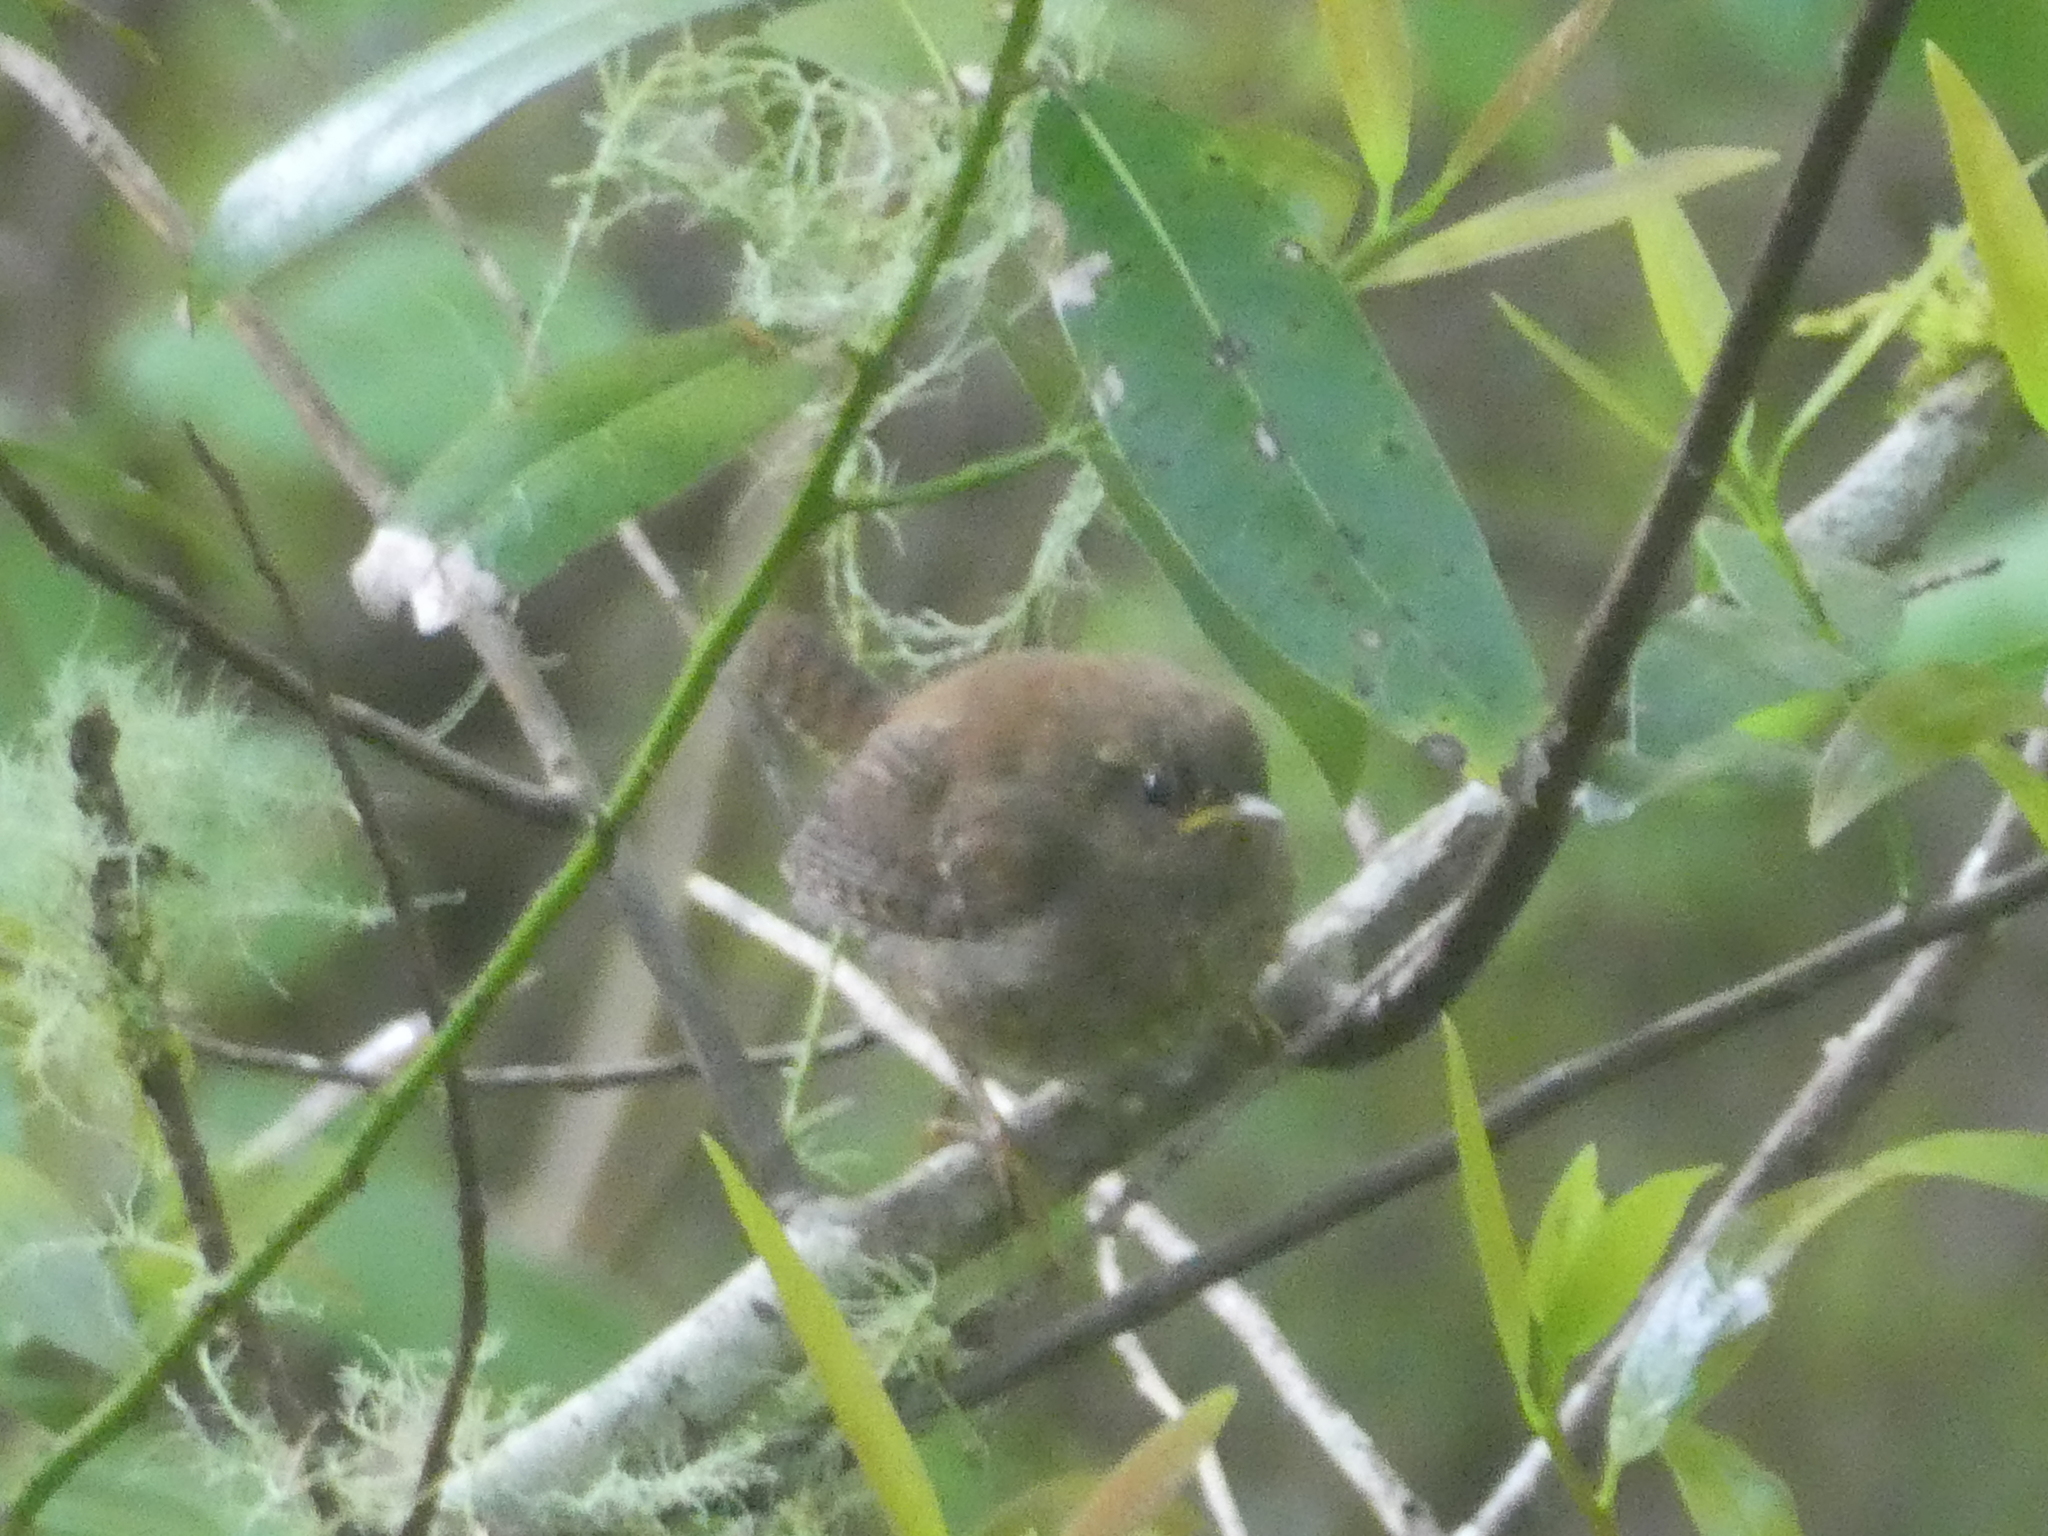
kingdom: Animalia
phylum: Chordata
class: Aves
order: Passeriformes
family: Troglodytidae
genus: Troglodytes
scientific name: Troglodytes pacificus
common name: Pacific wren
